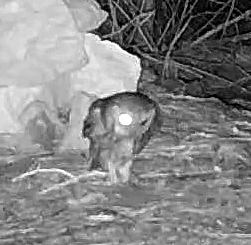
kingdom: Animalia
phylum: Chordata
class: Aves
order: Strigiformes
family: Strigidae
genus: Megascops
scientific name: Megascops asio
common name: Eastern screech-owl
